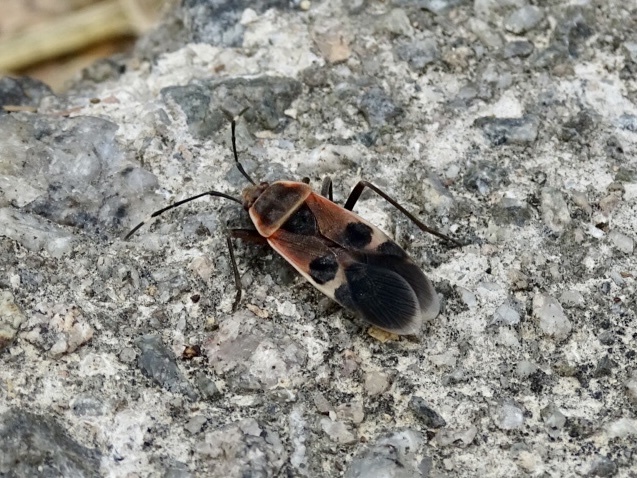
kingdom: Animalia
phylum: Arthropoda
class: Insecta
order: Hemiptera
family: Largidae
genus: Physopelta
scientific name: Physopelta gutta
